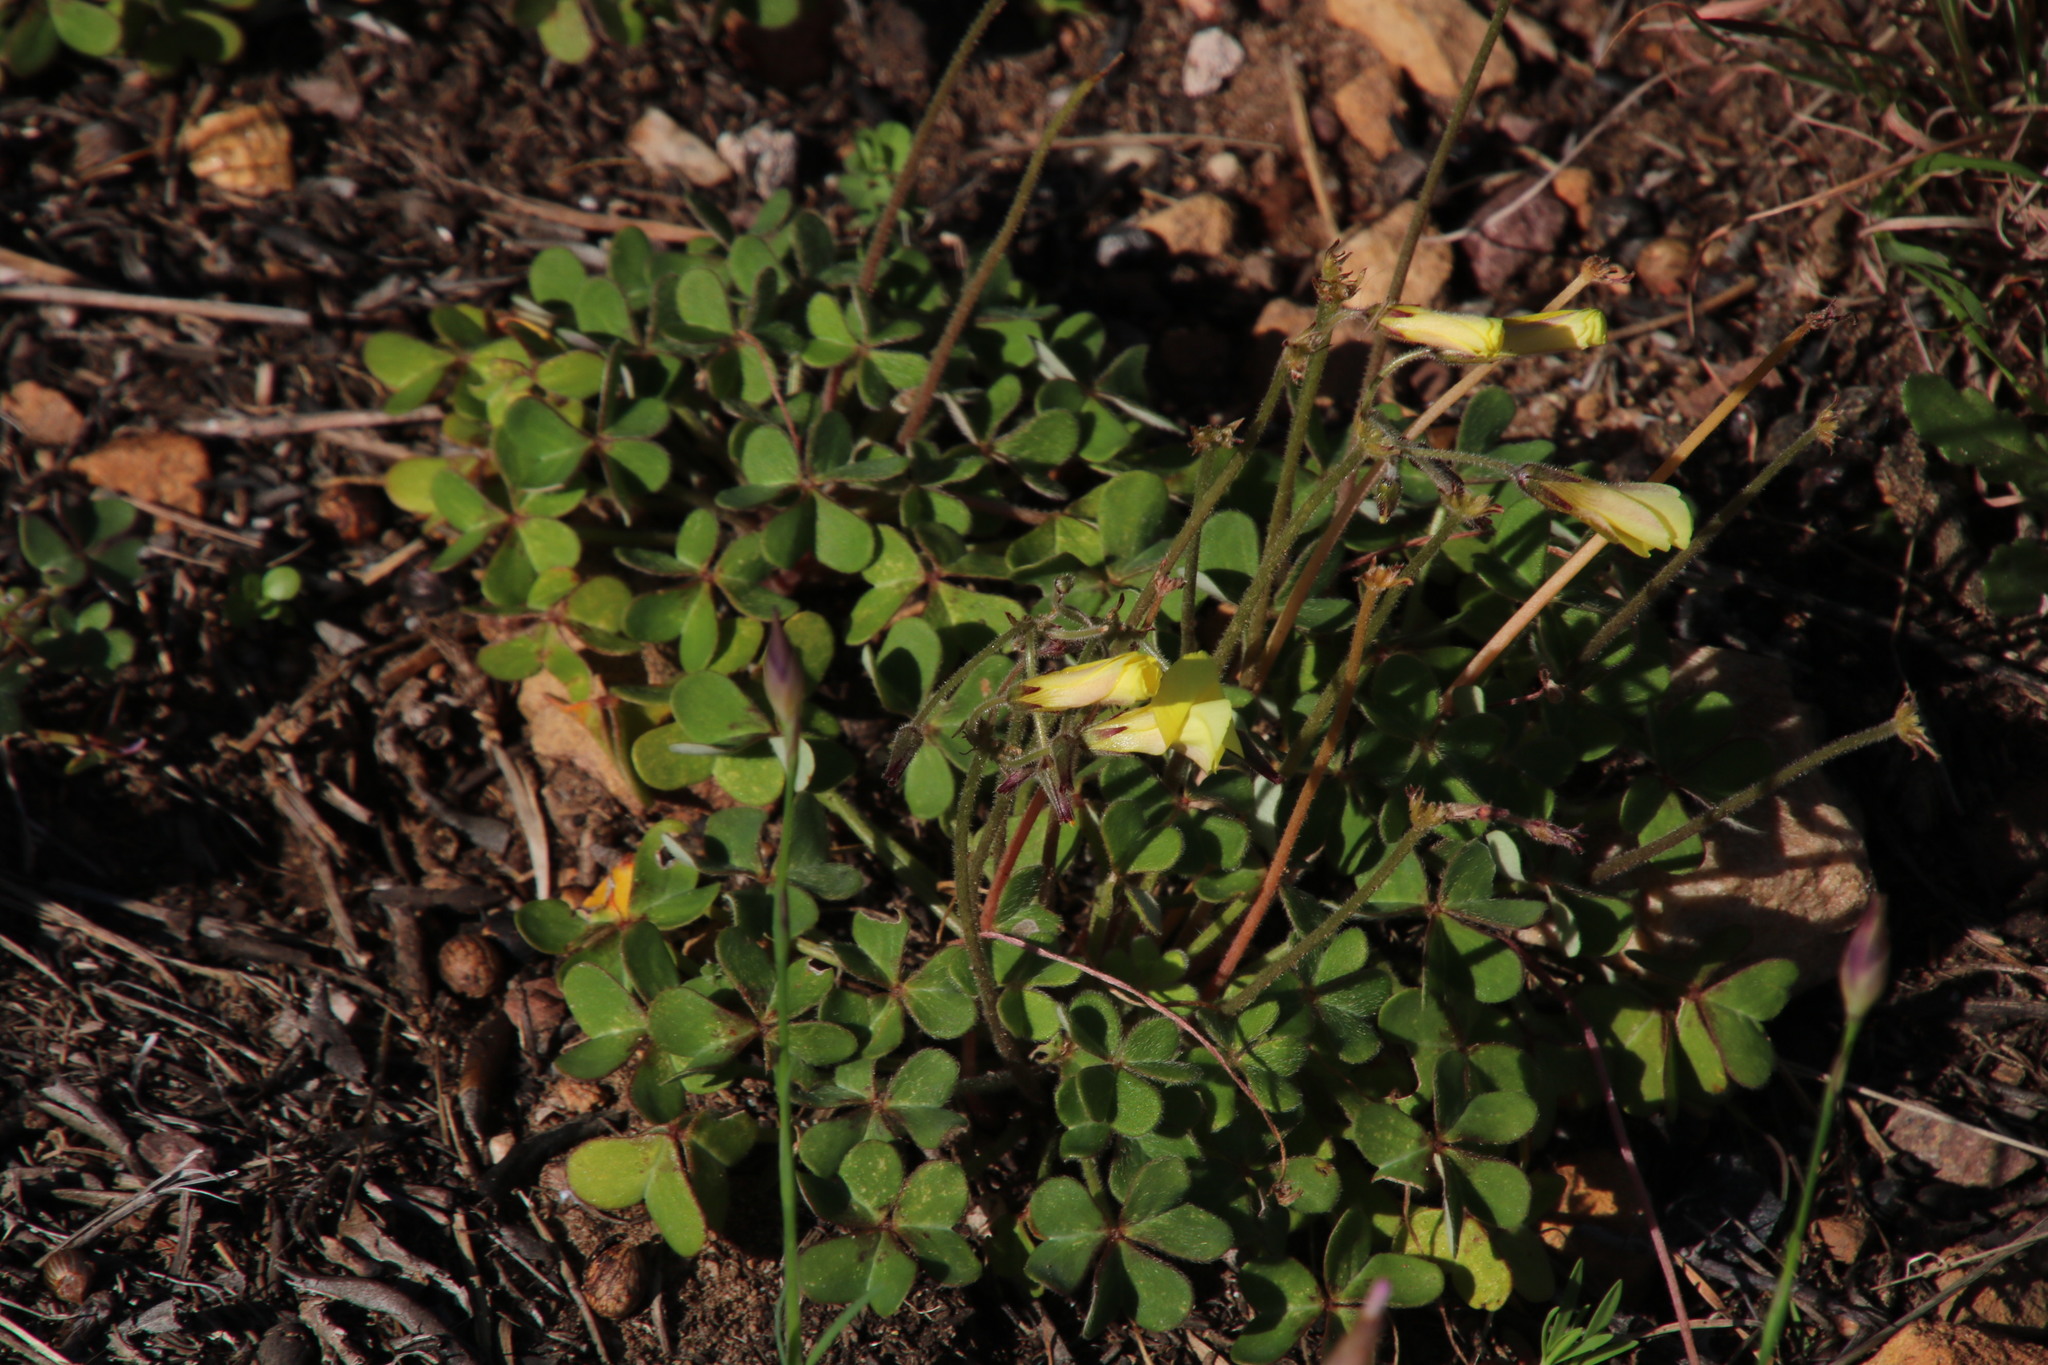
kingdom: Plantae
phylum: Tracheophyta
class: Magnoliopsida
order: Oxalidales
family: Oxalidaceae
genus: Oxalis
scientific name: Oxalis pes-caprae
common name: Bermuda-buttercup
